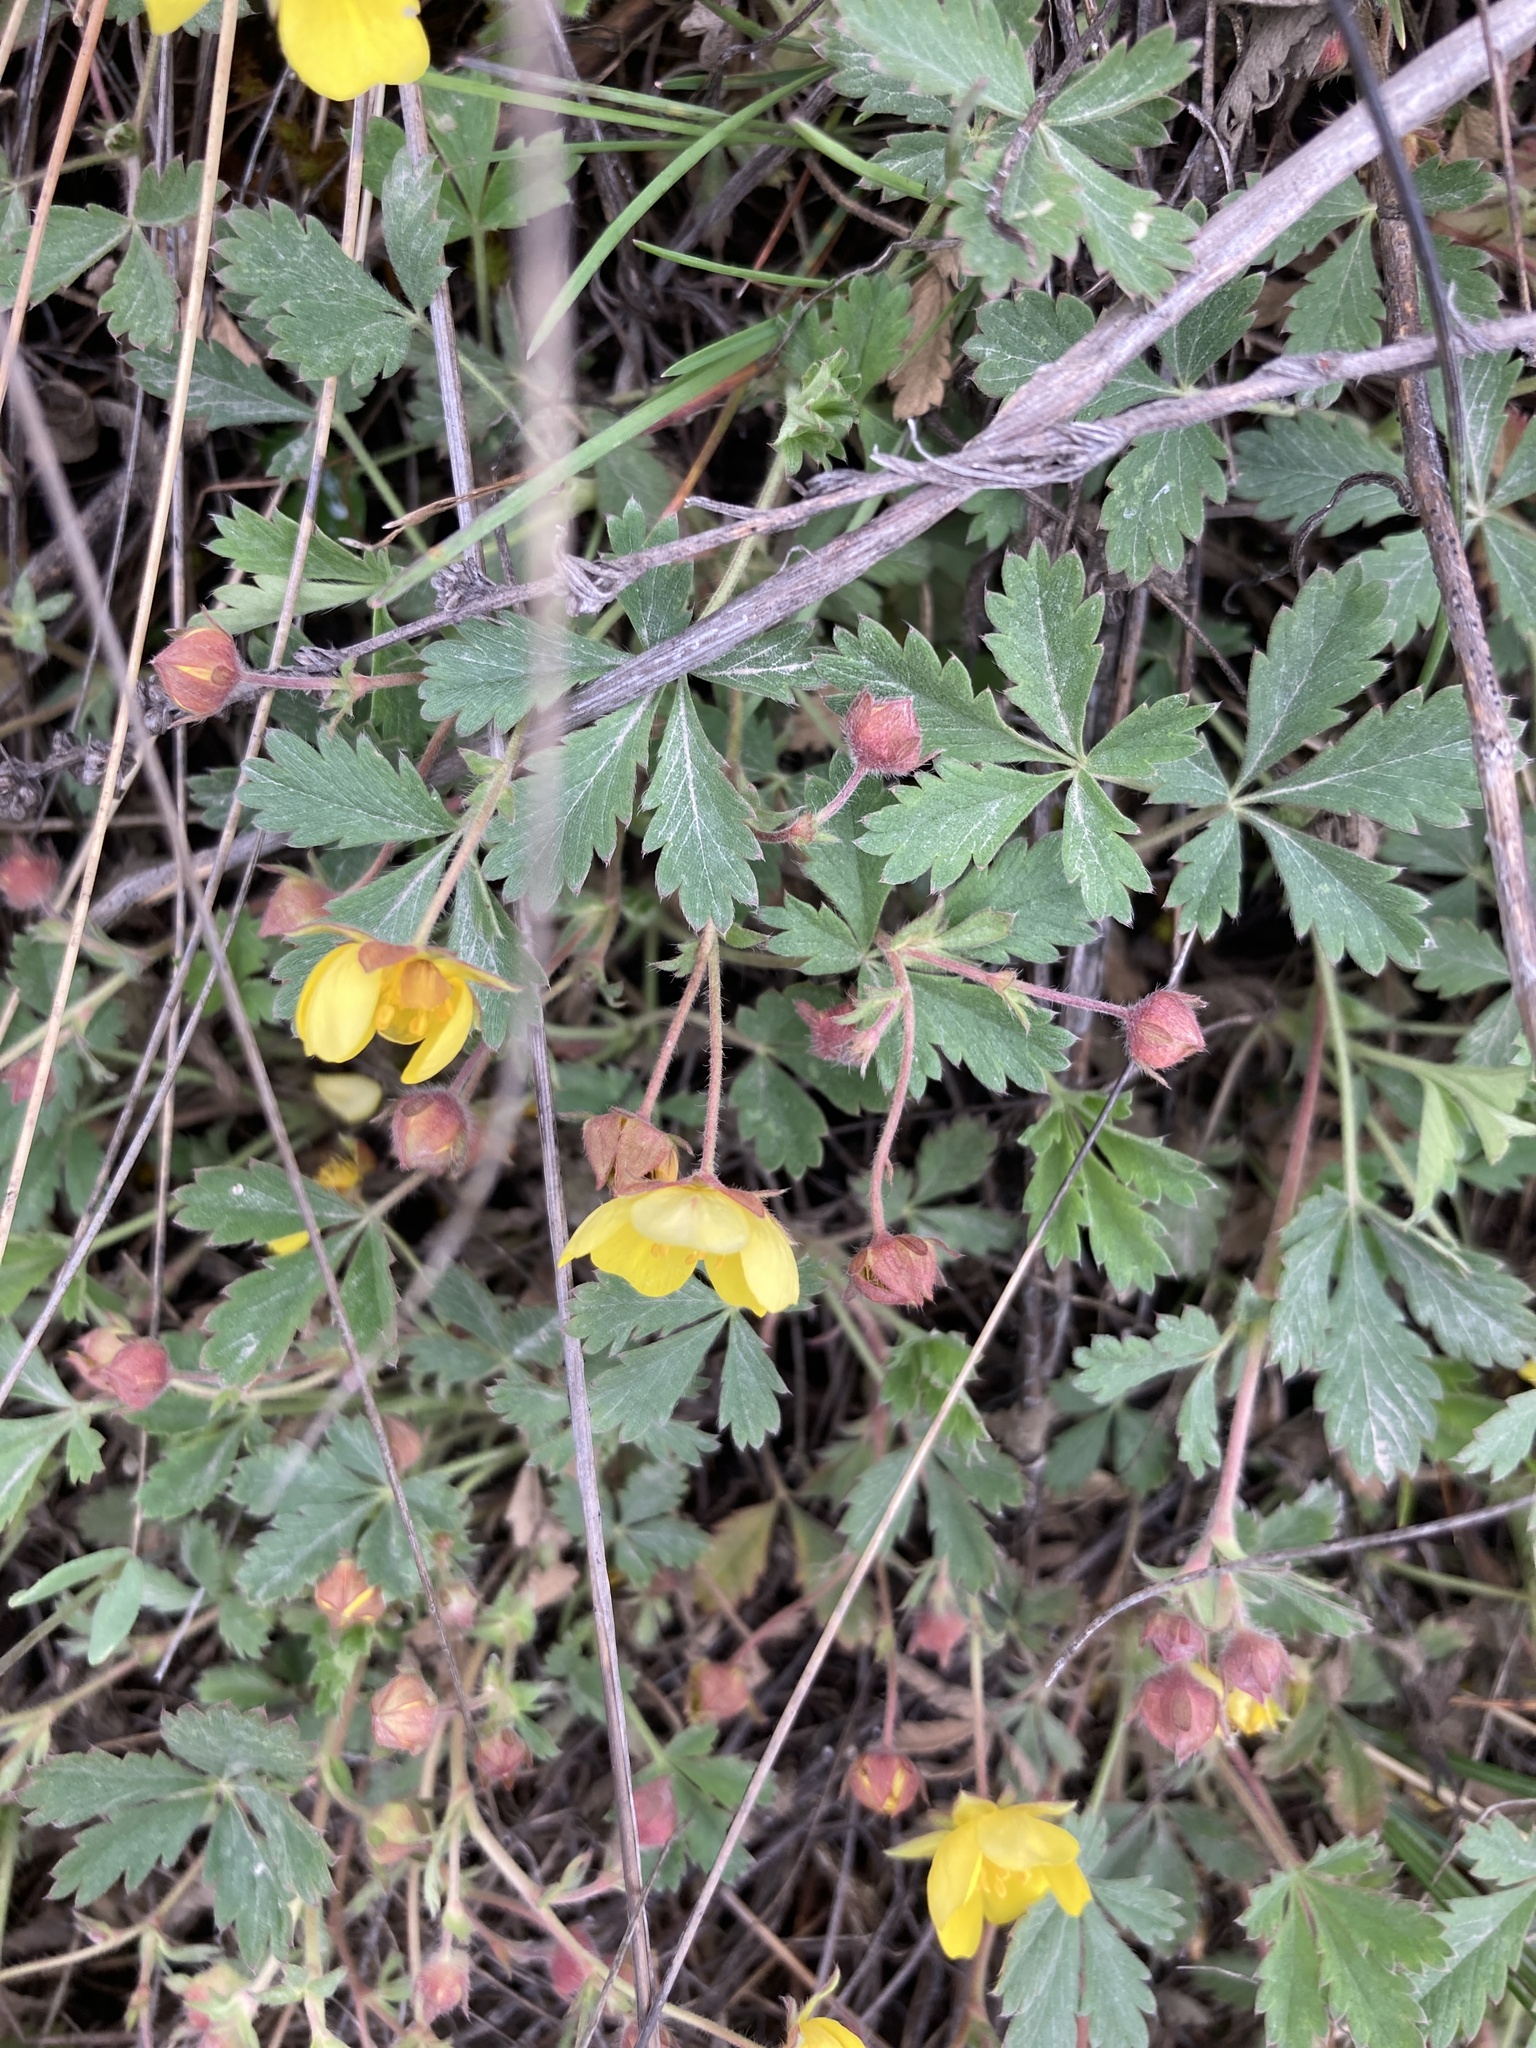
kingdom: Plantae
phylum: Tracheophyta
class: Magnoliopsida
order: Rosales
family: Rosaceae
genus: Potentilla
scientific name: Potentilla incana
